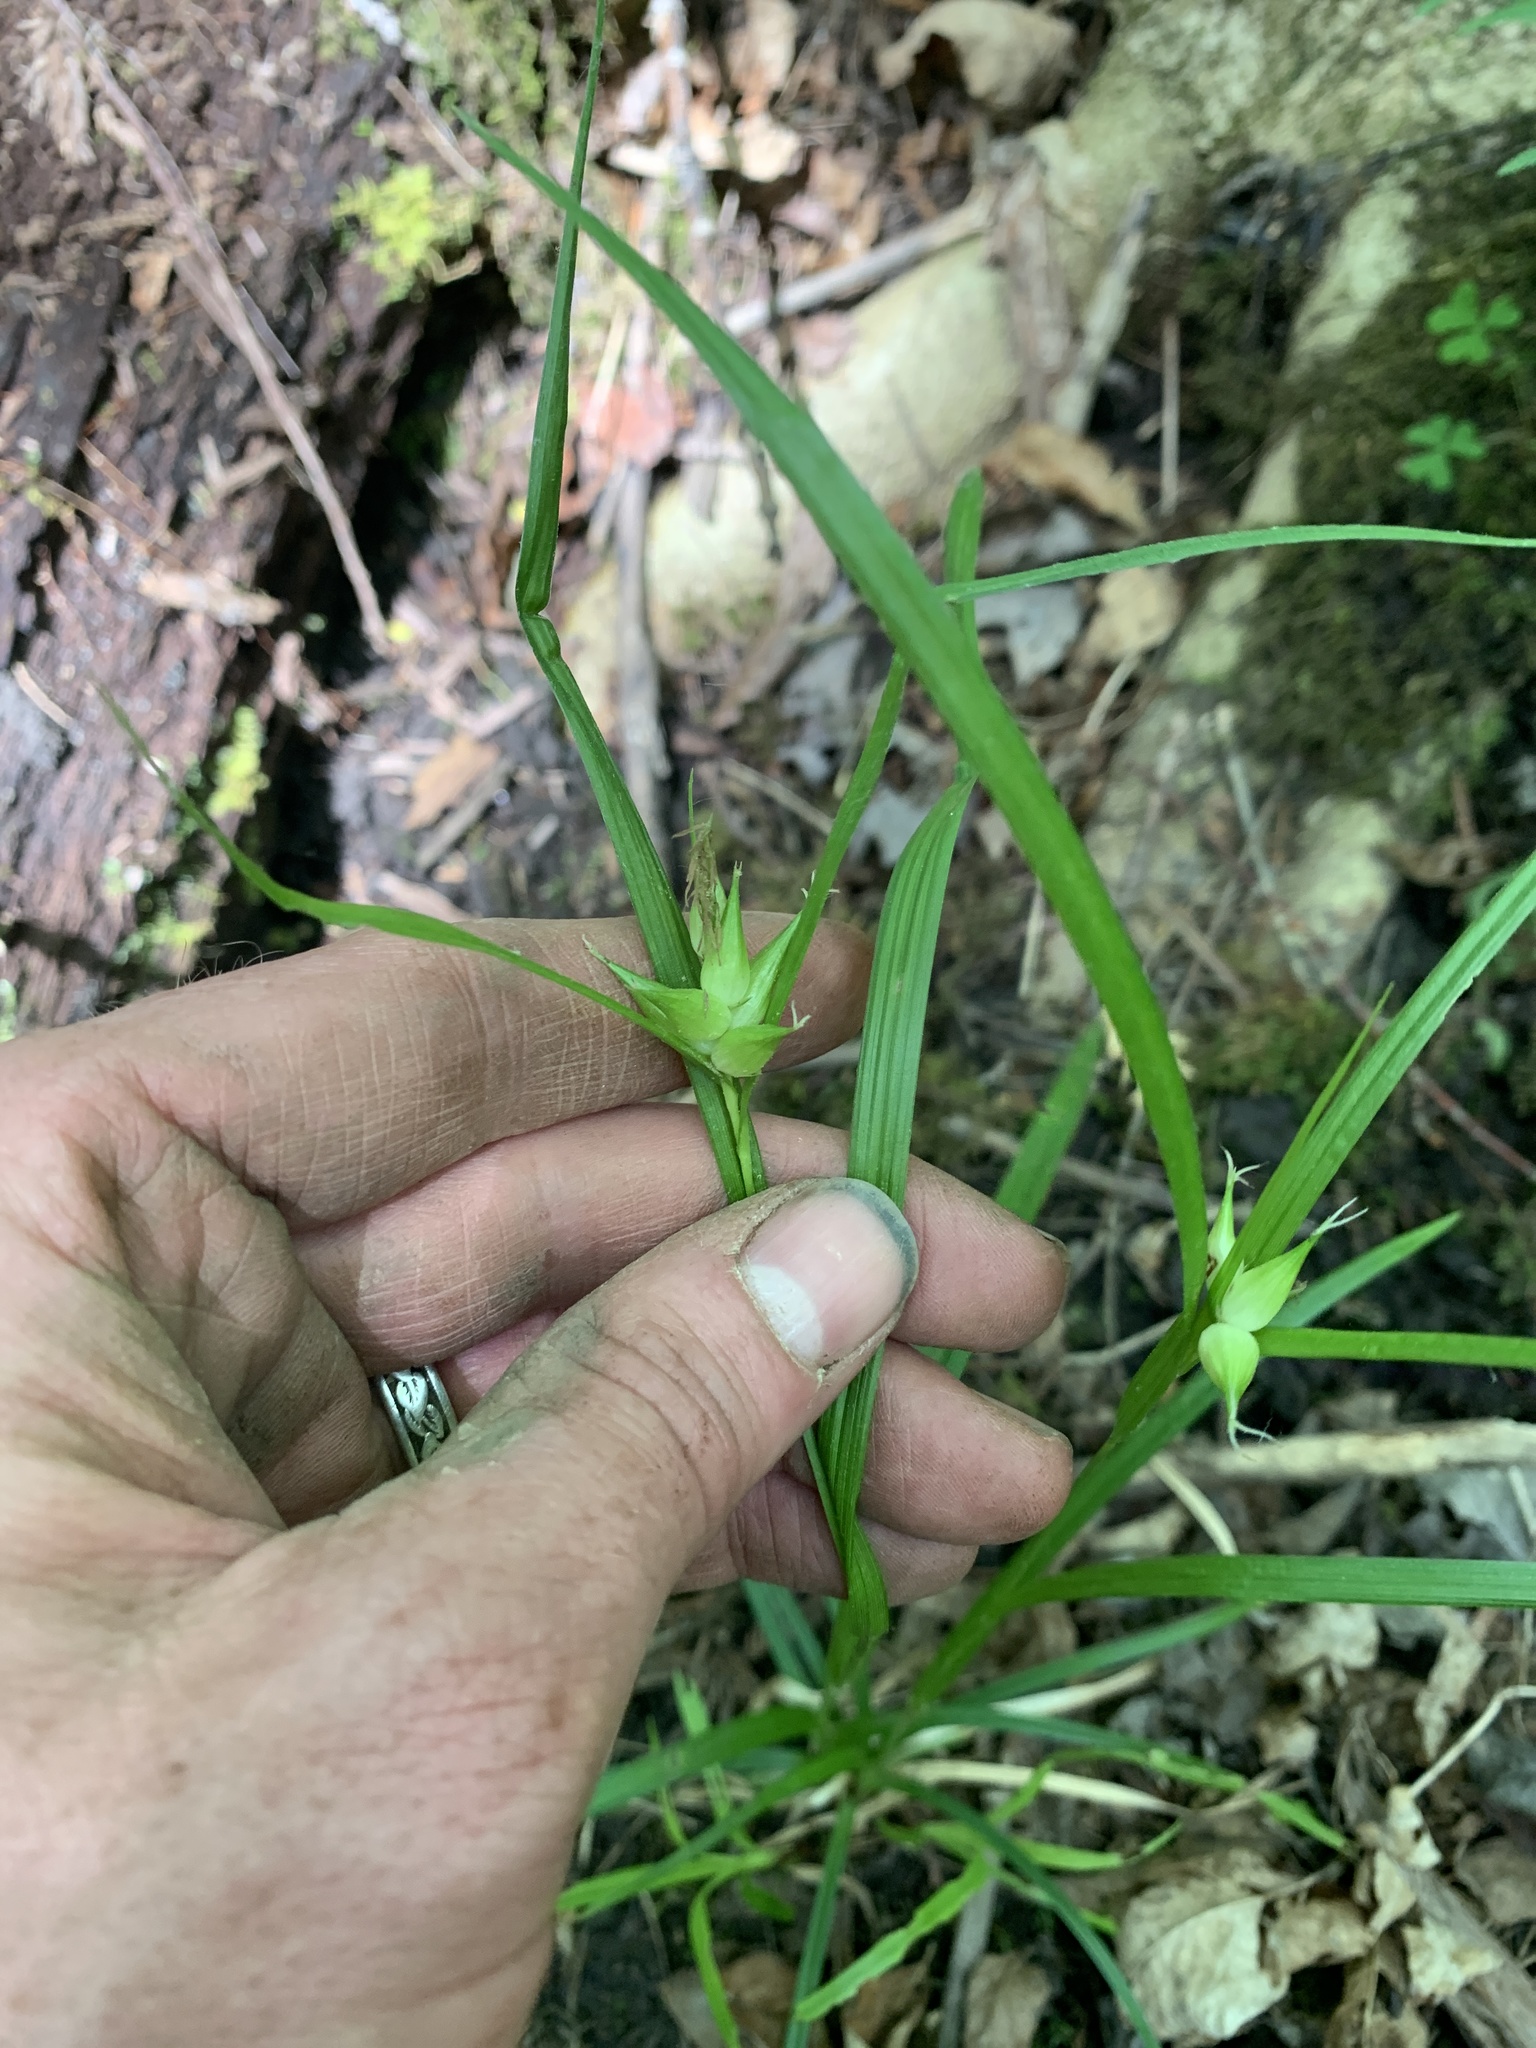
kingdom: Plantae
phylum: Tracheophyta
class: Liliopsida
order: Poales
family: Cyperaceae
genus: Carex
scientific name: Carex intumescens
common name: Greater bladder sedge
